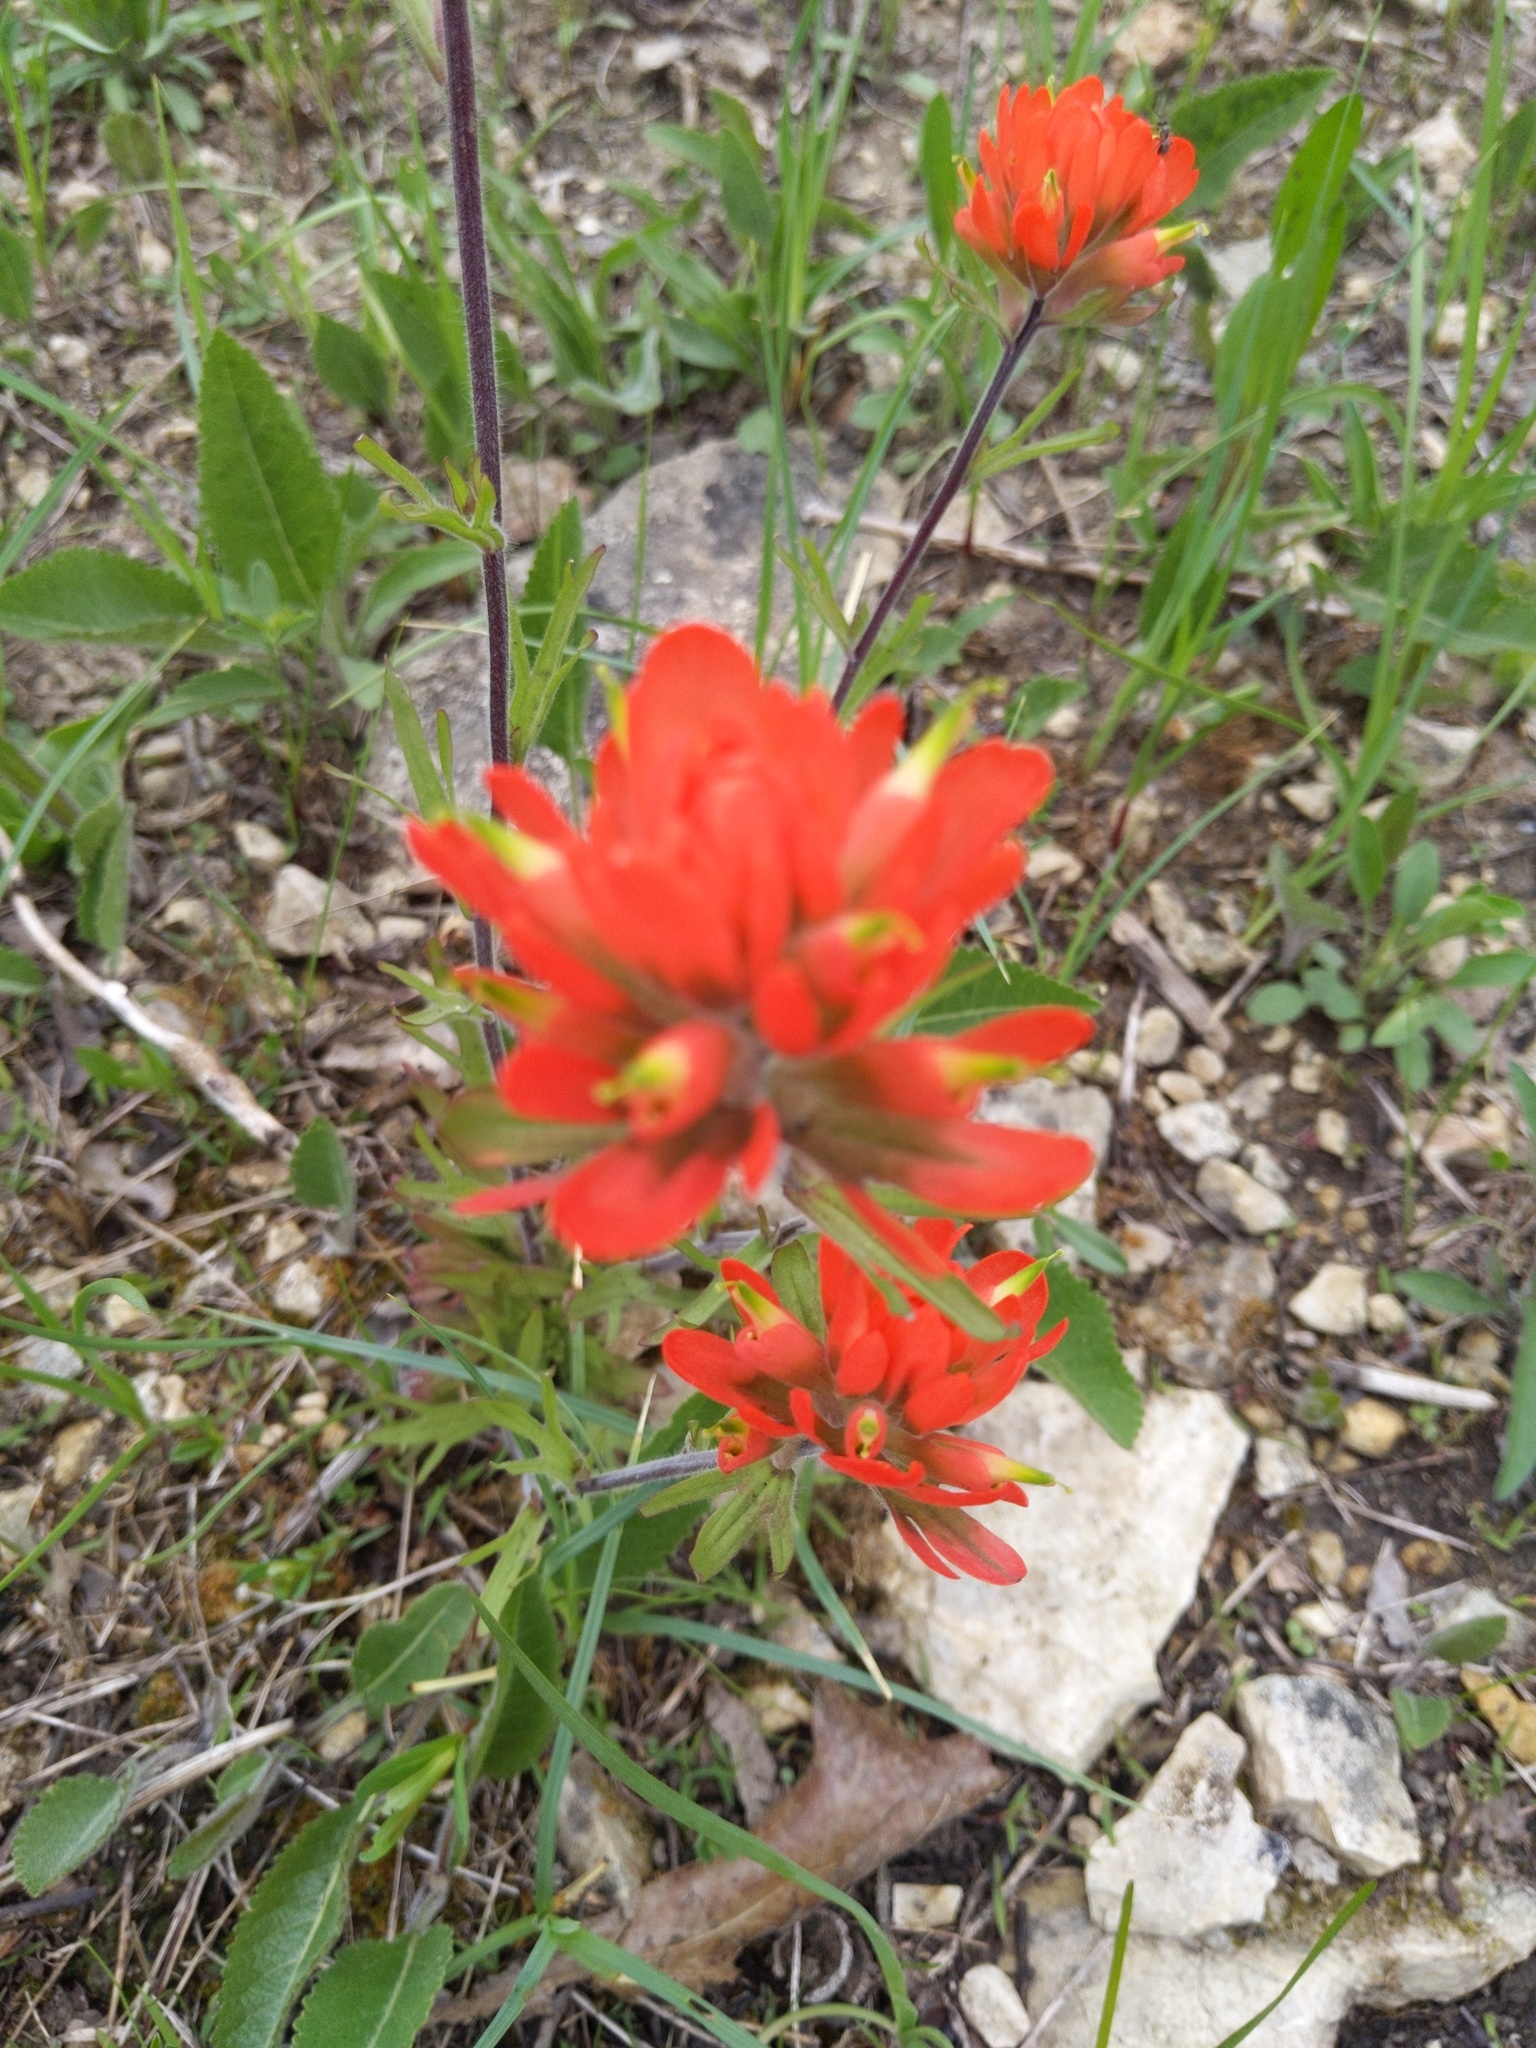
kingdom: Plantae
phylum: Tracheophyta
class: Magnoliopsida
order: Lamiales
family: Orobanchaceae
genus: Castilleja
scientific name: Castilleja coccinea
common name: Scarlet paintbrush
